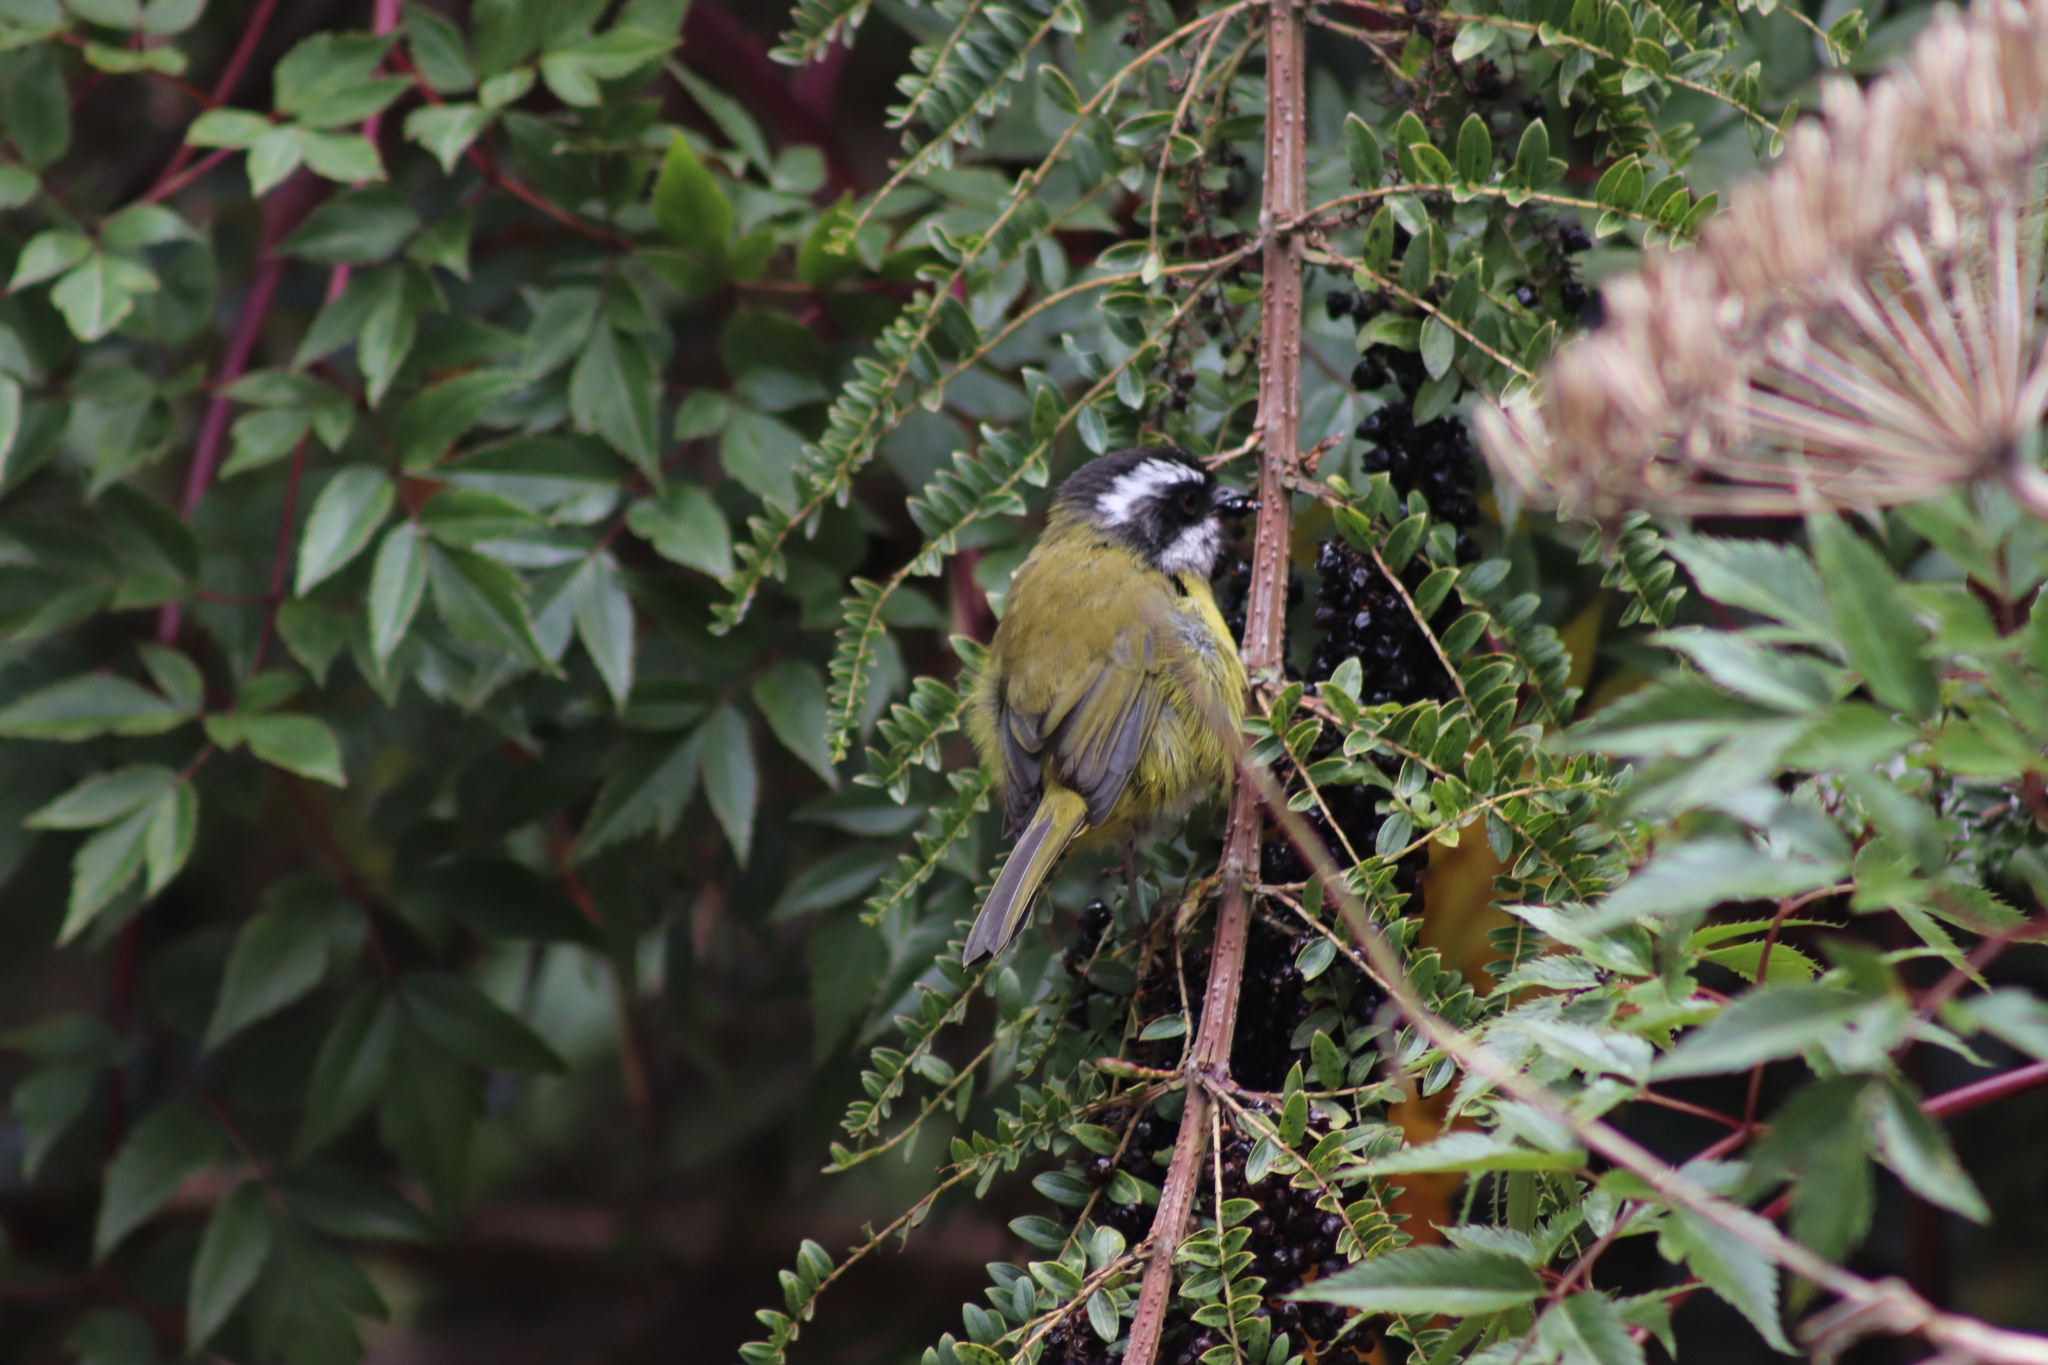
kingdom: Animalia
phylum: Chordata
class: Aves
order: Passeriformes
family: Passerellidae
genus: Chlorospingus
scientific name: Chlorospingus pileatus
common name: Sooty-capped bush-tanager
